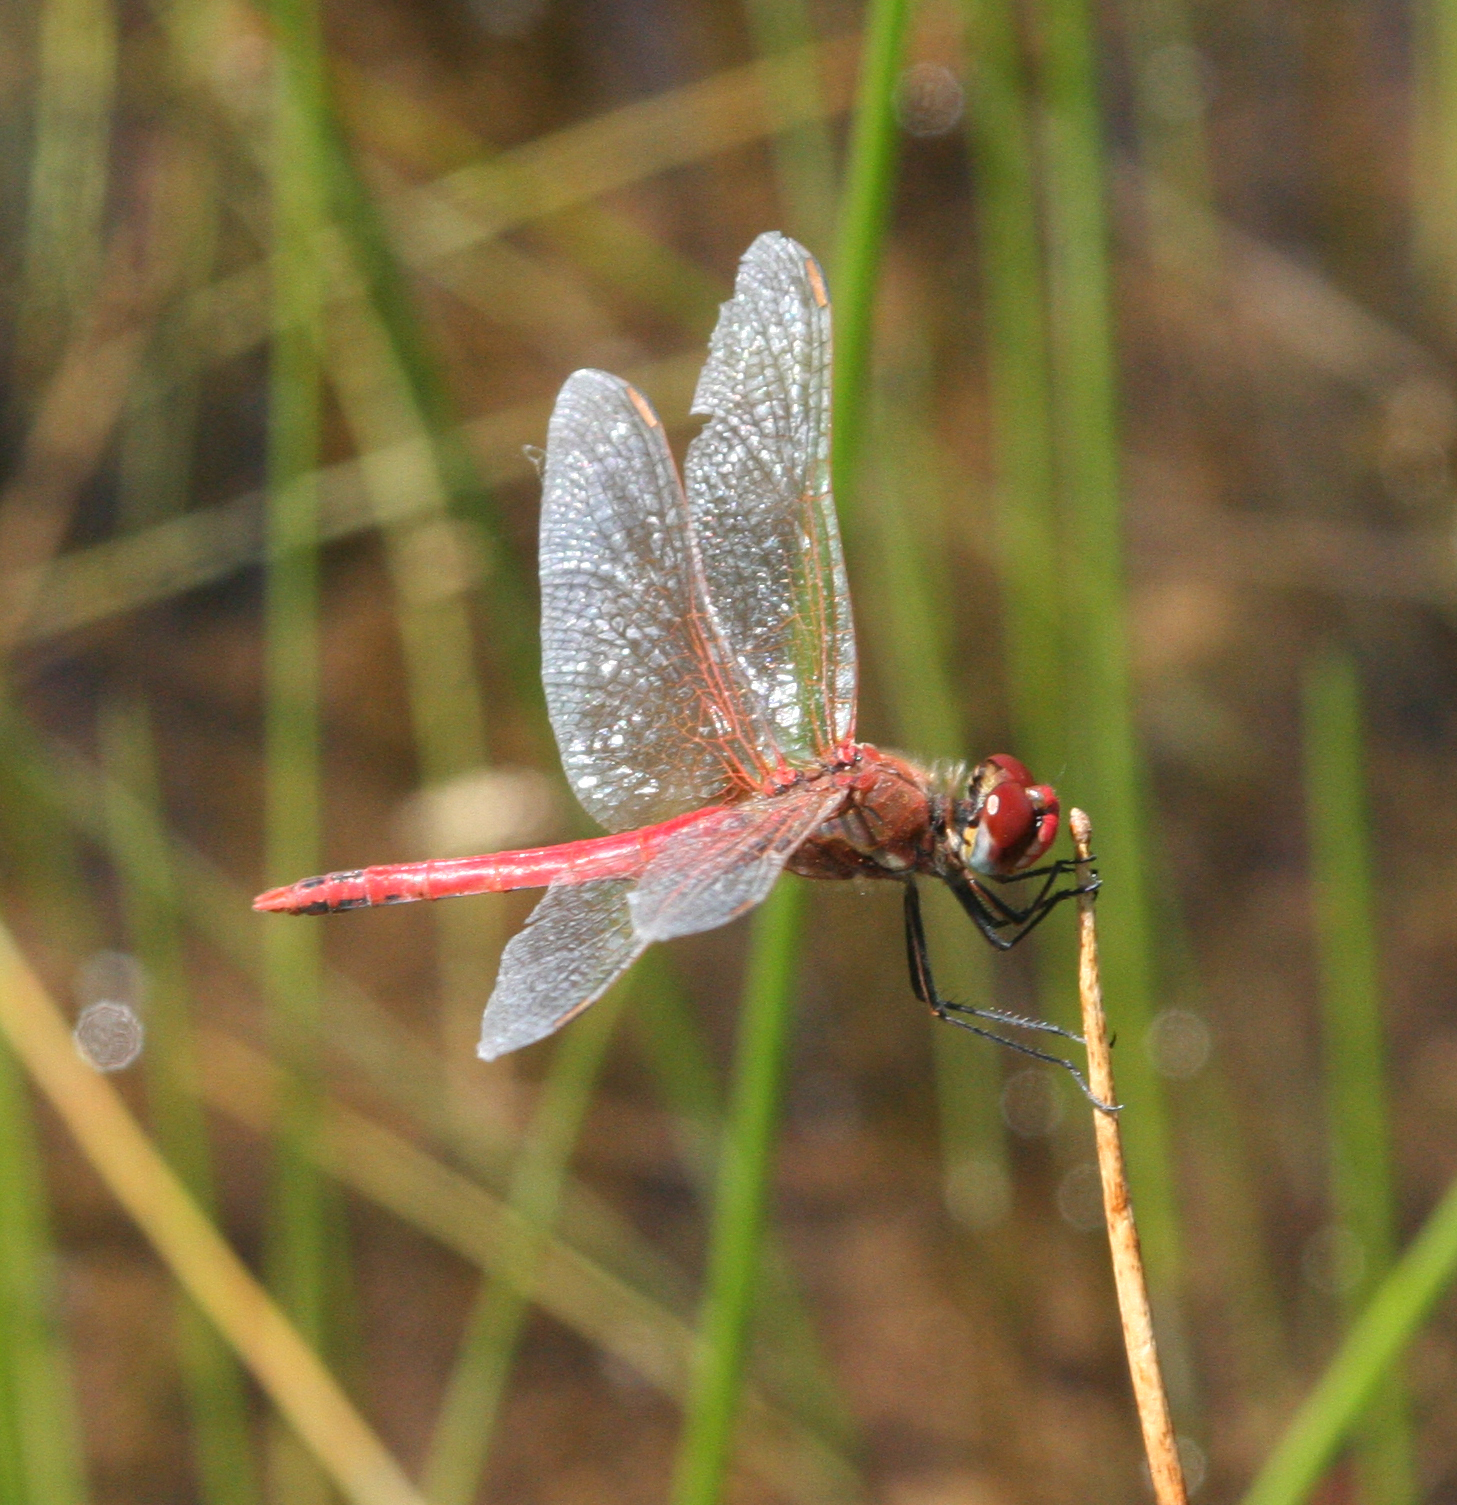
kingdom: Animalia
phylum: Arthropoda
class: Insecta
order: Odonata
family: Libellulidae
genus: Sympetrum
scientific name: Sympetrum fonscolombii
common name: Red-veined darter
